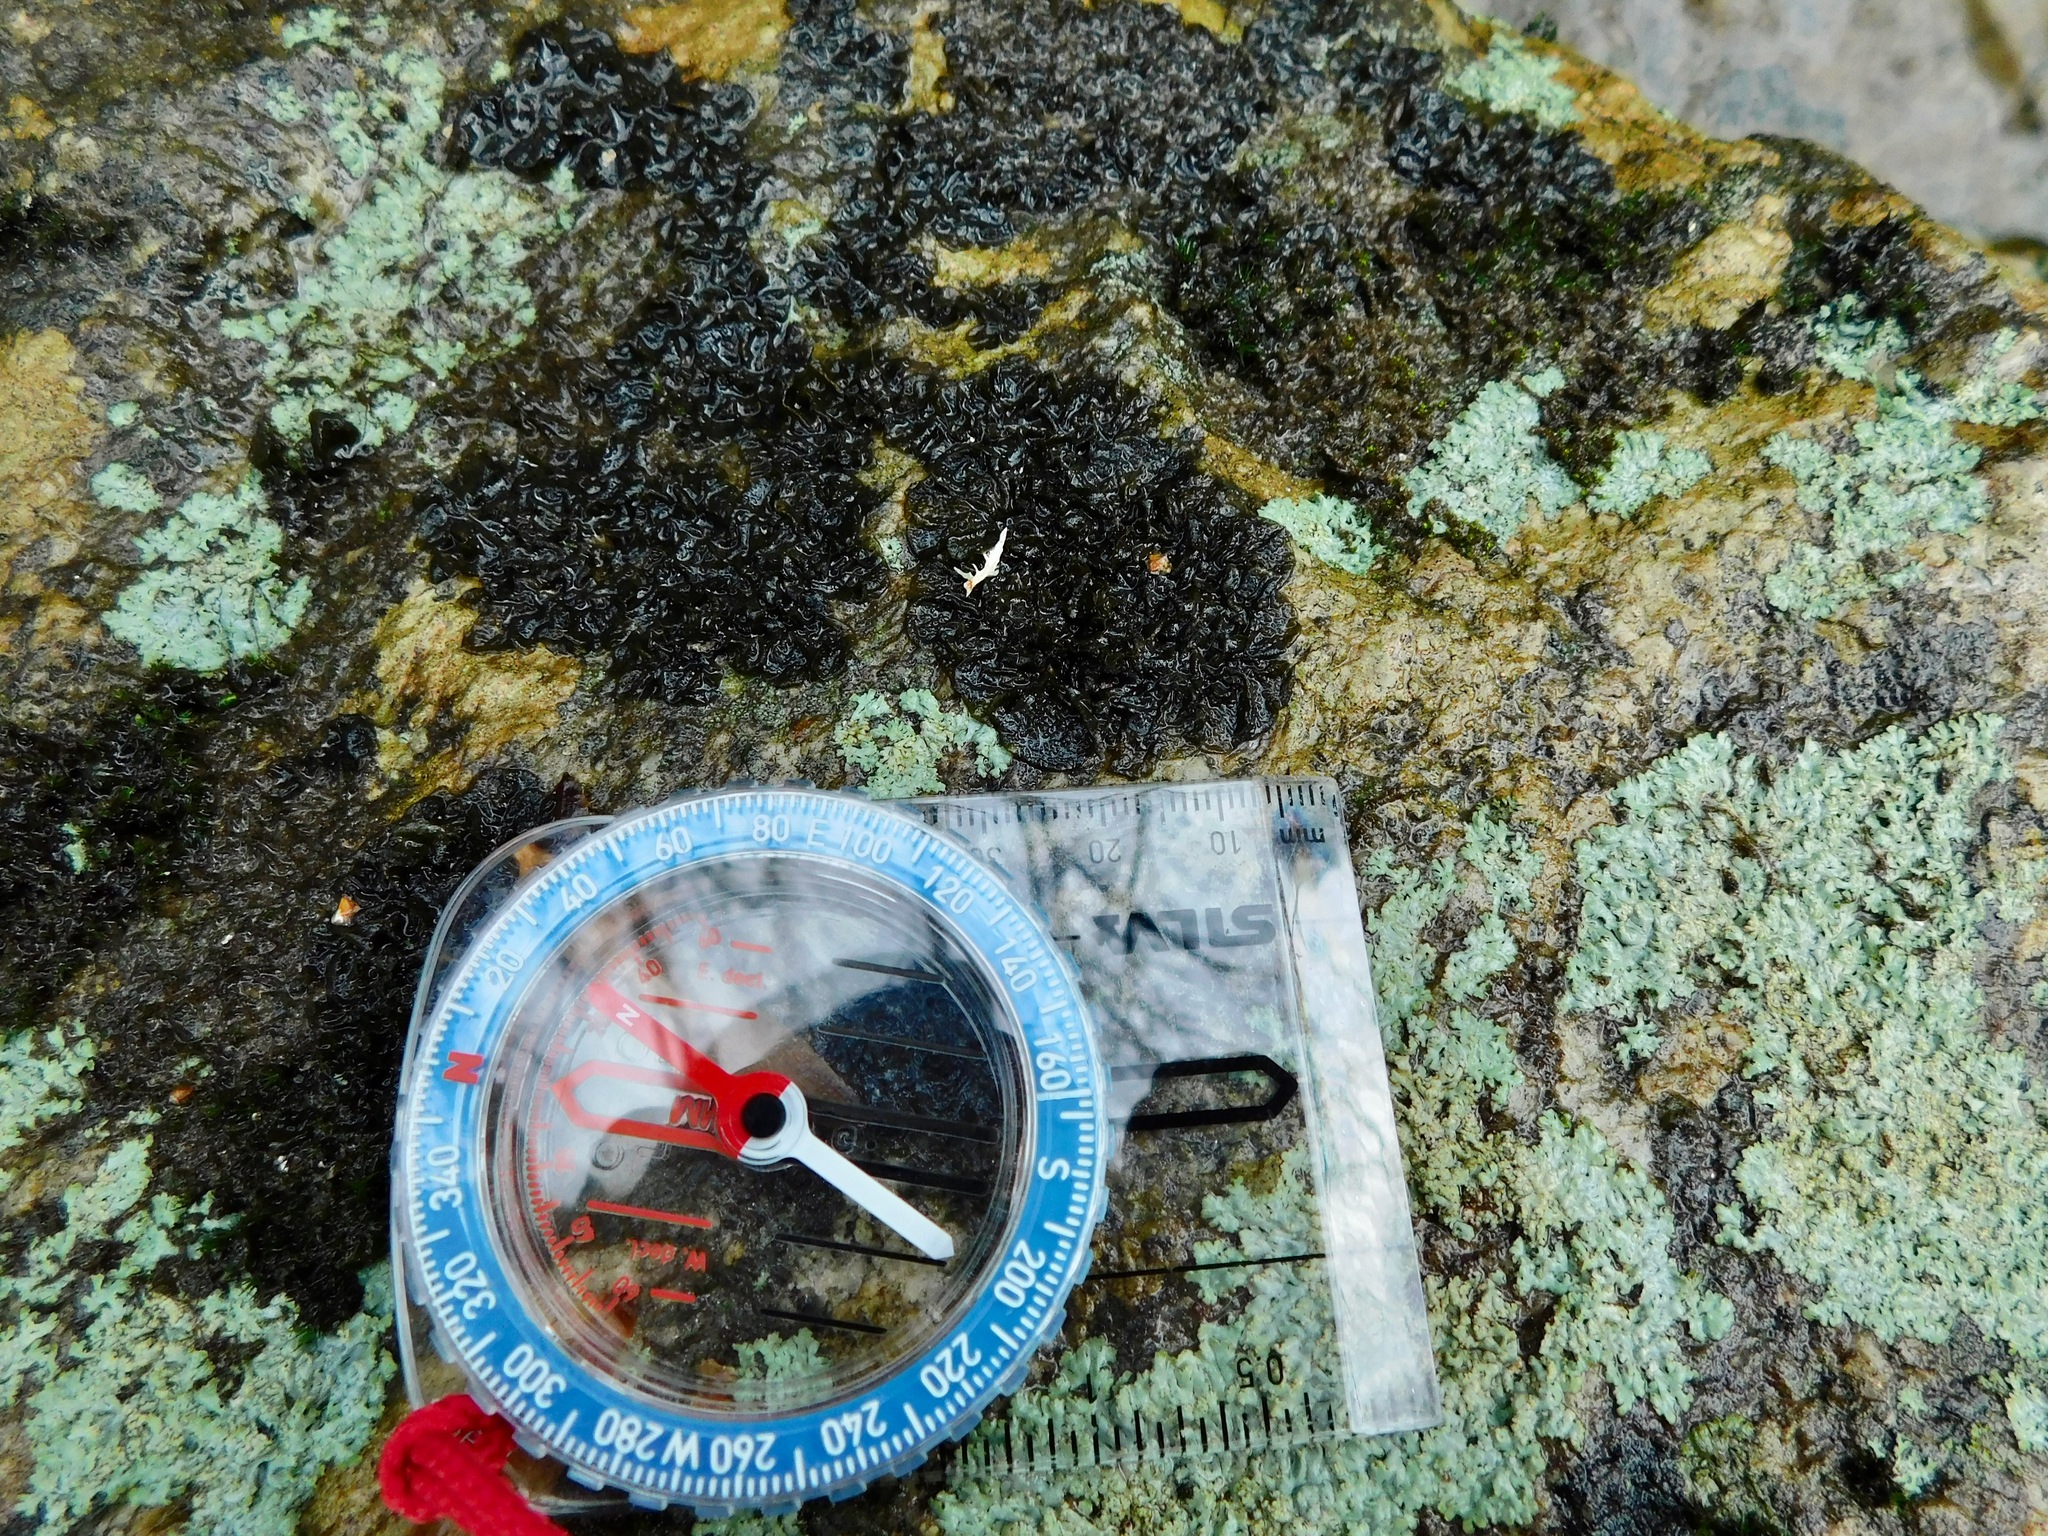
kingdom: Fungi
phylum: Ascomycota
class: Lecanoromycetes
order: Peltigerales
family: Collemataceae
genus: Collema
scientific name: Collema furfuraceum
